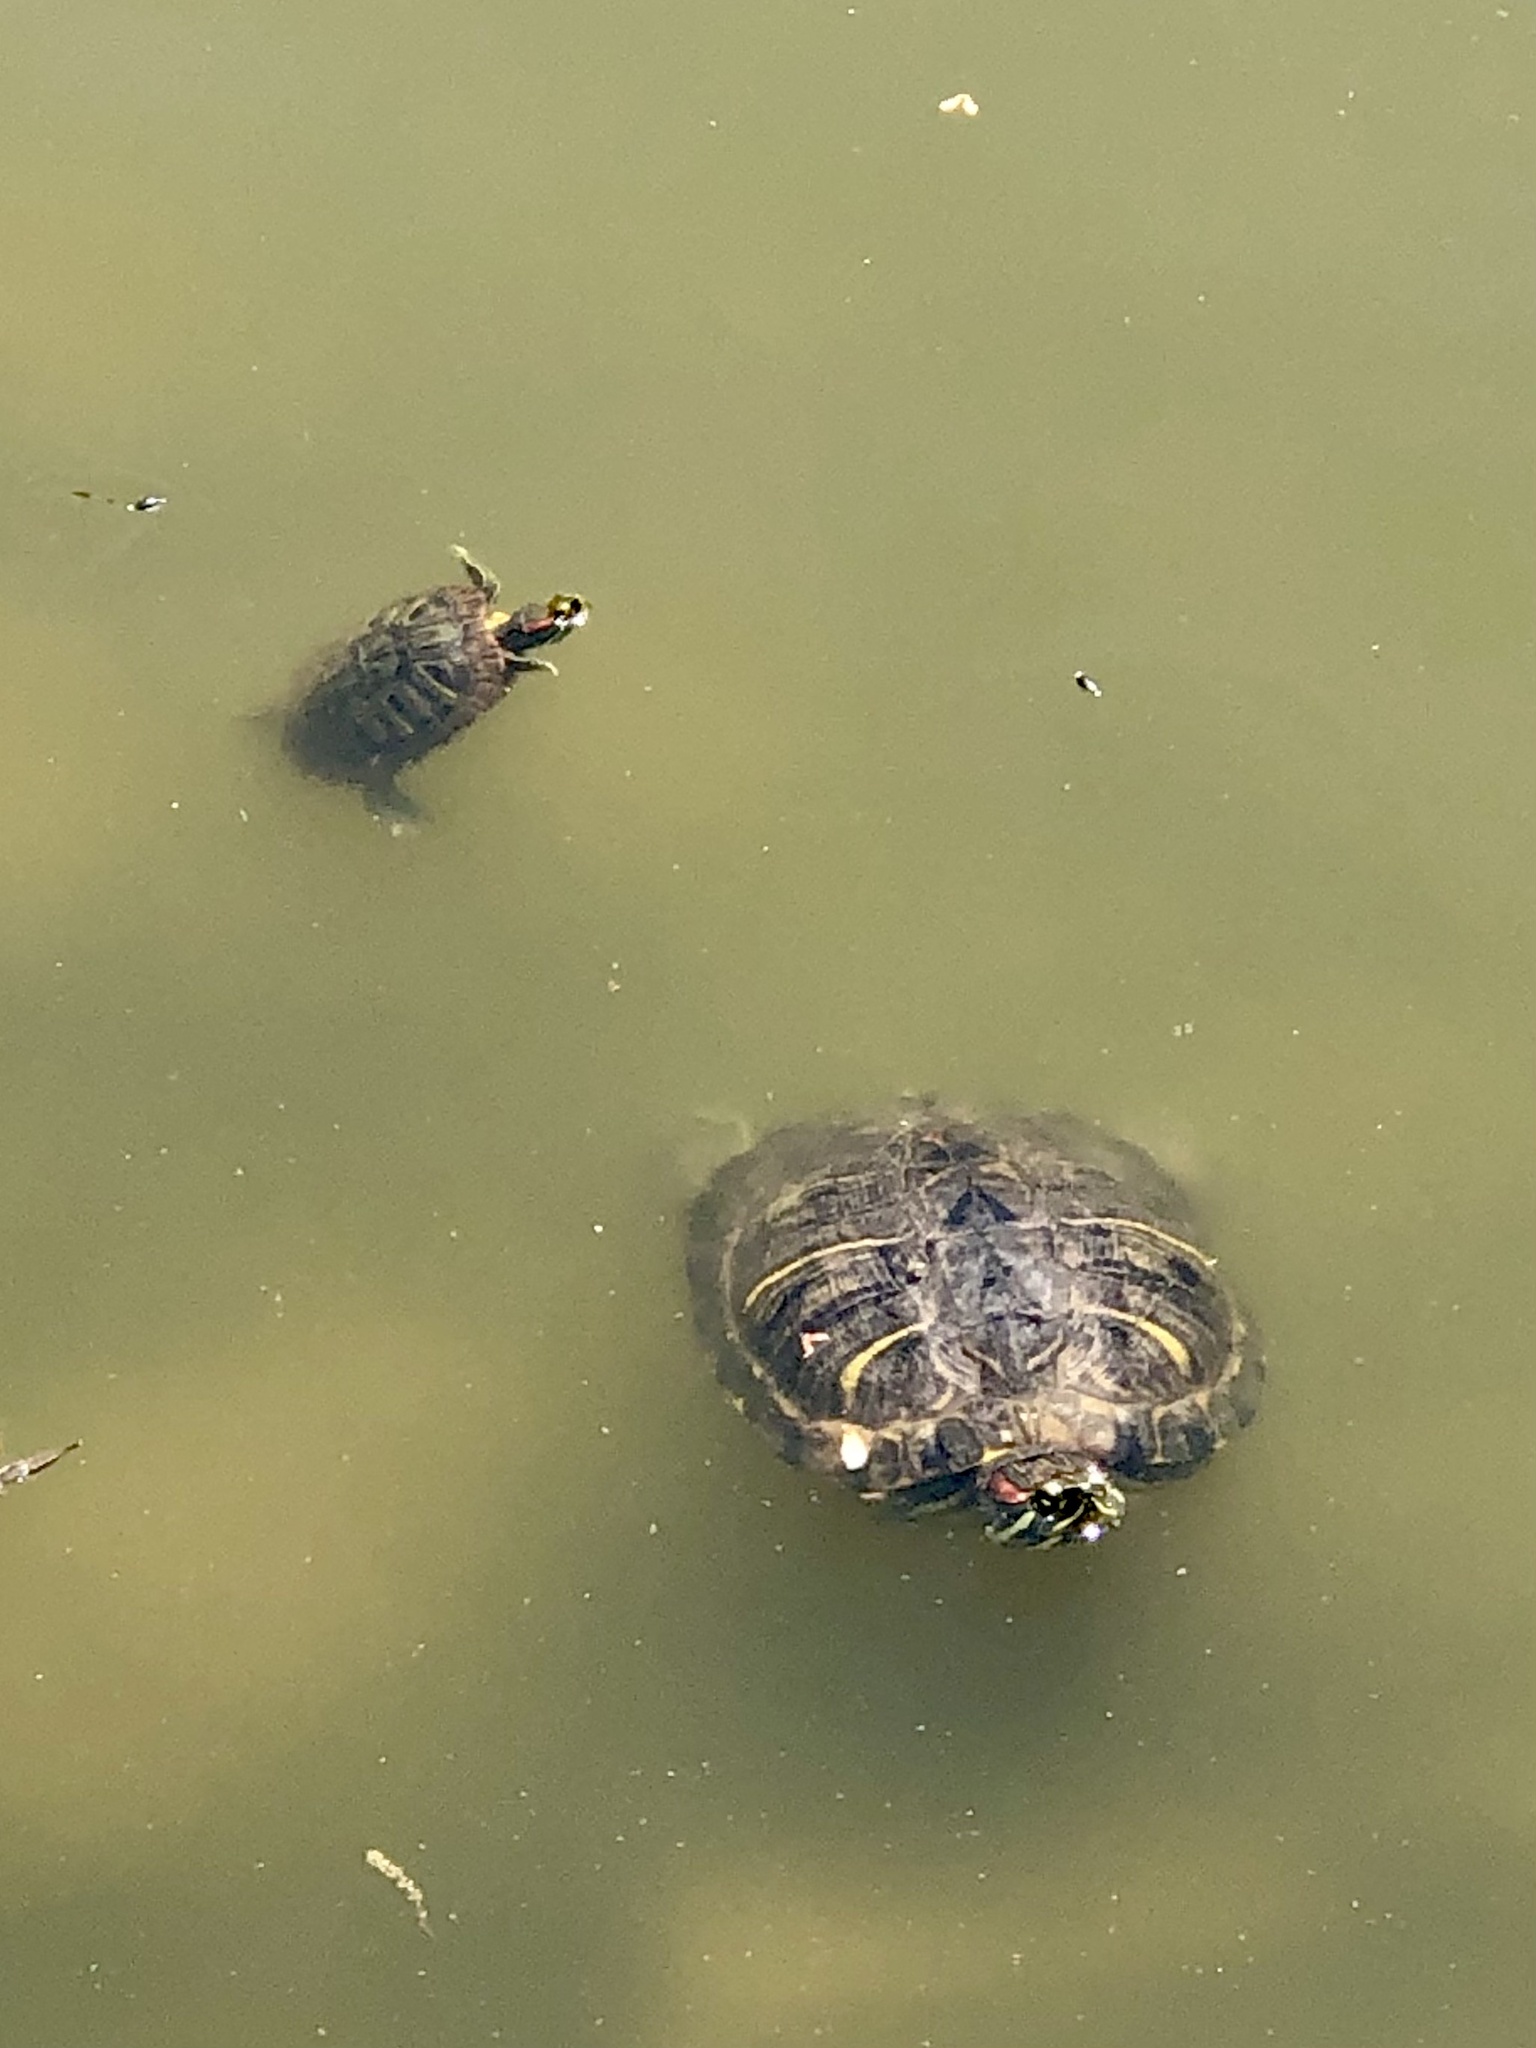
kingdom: Animalia
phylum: Chordata
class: Testudines
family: Emydidae
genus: Trachemys
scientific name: Trachemys scripta
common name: Slider
